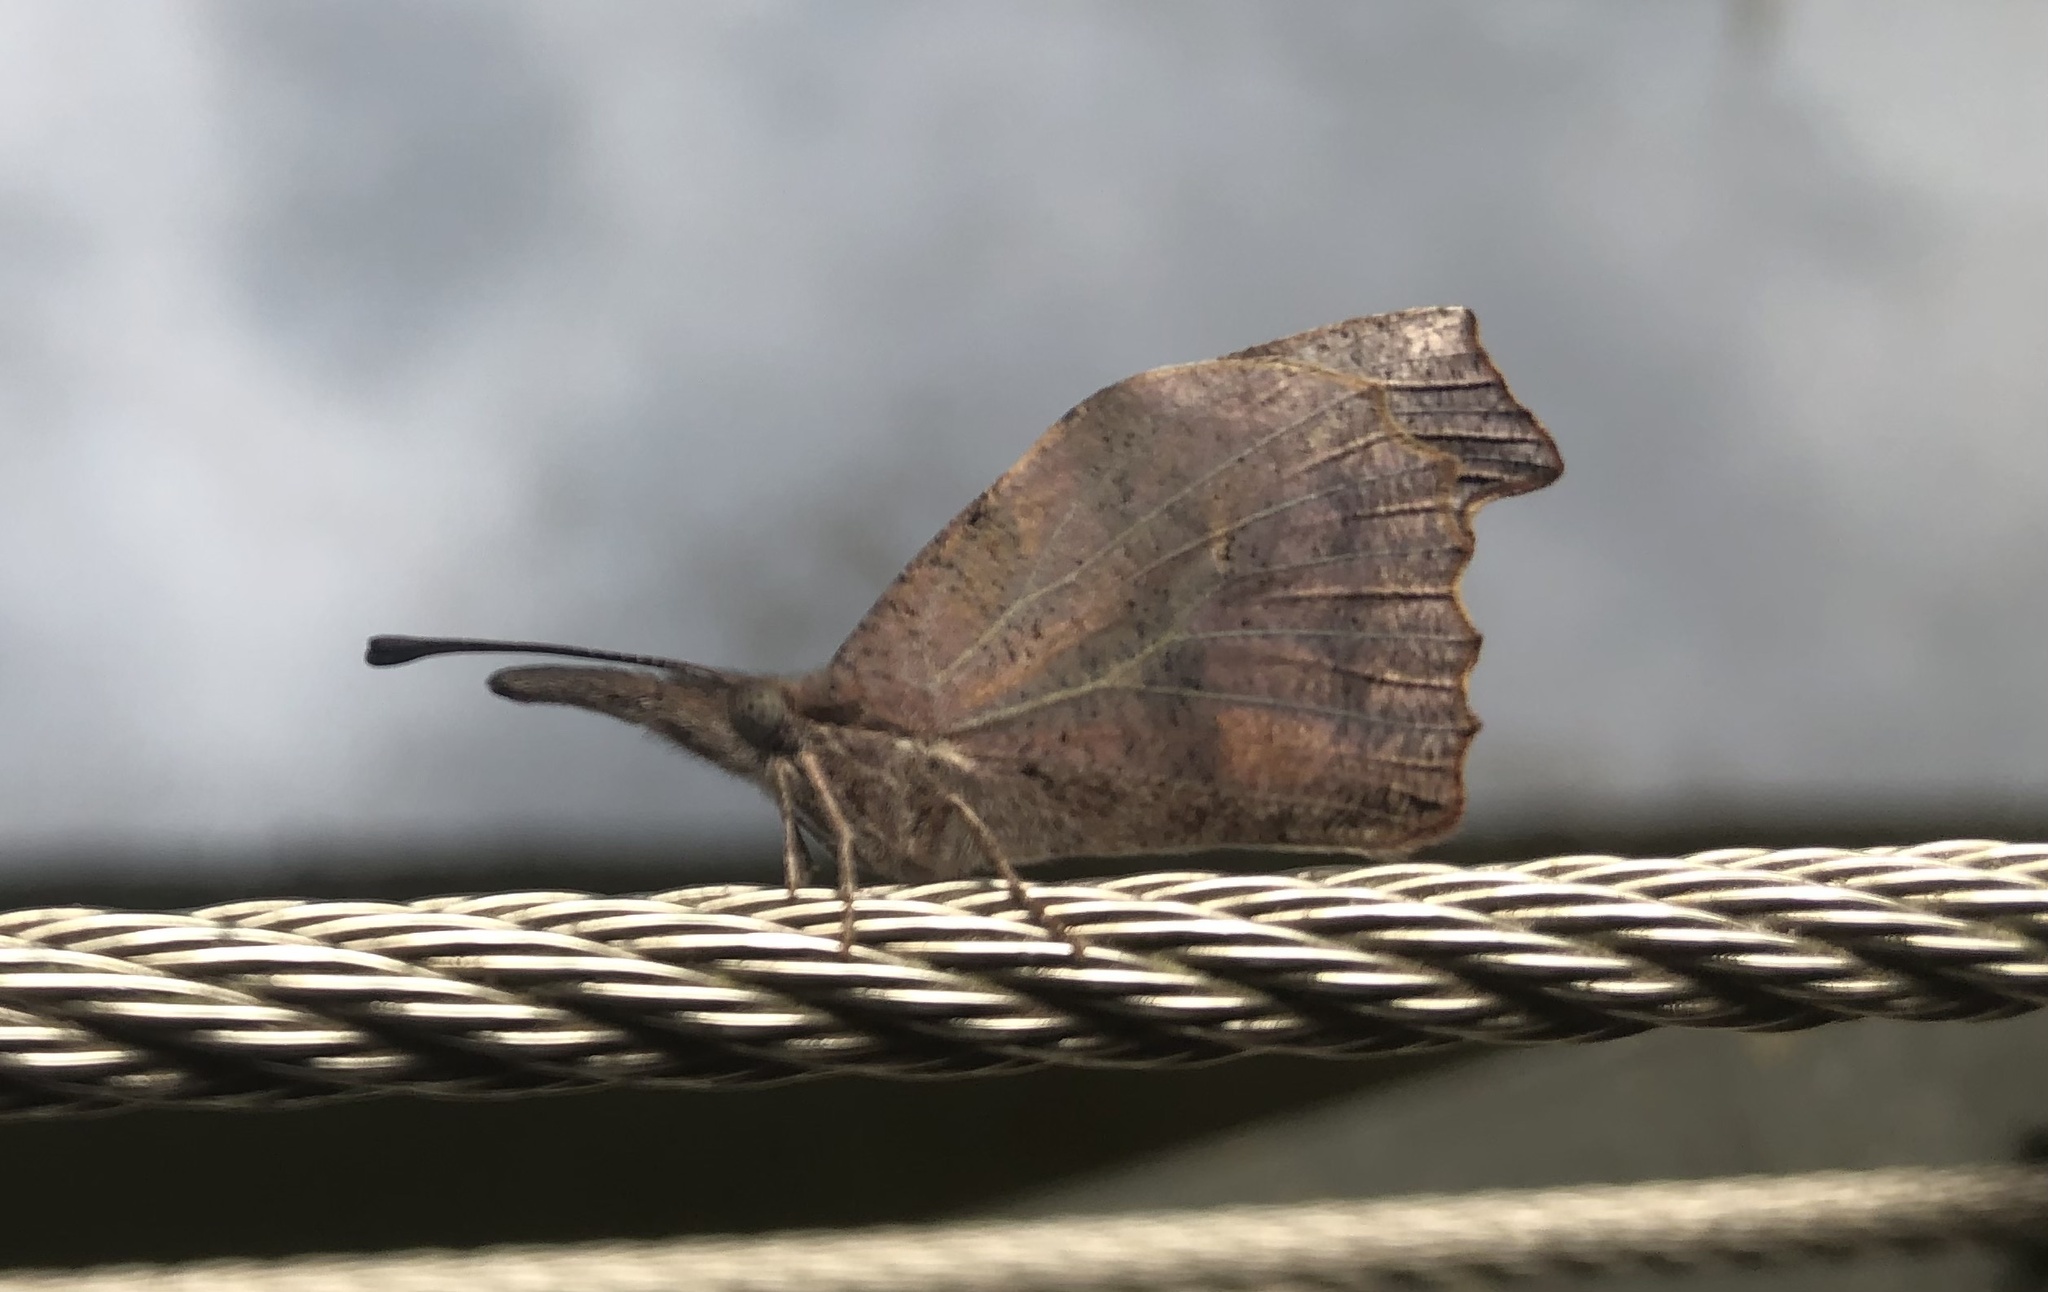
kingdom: Animalia
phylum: Arthropoda
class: Insecta
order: Lepidoptera
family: Nymphalidae
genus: Libytheana
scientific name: Libytheana carinenta
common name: American snout
